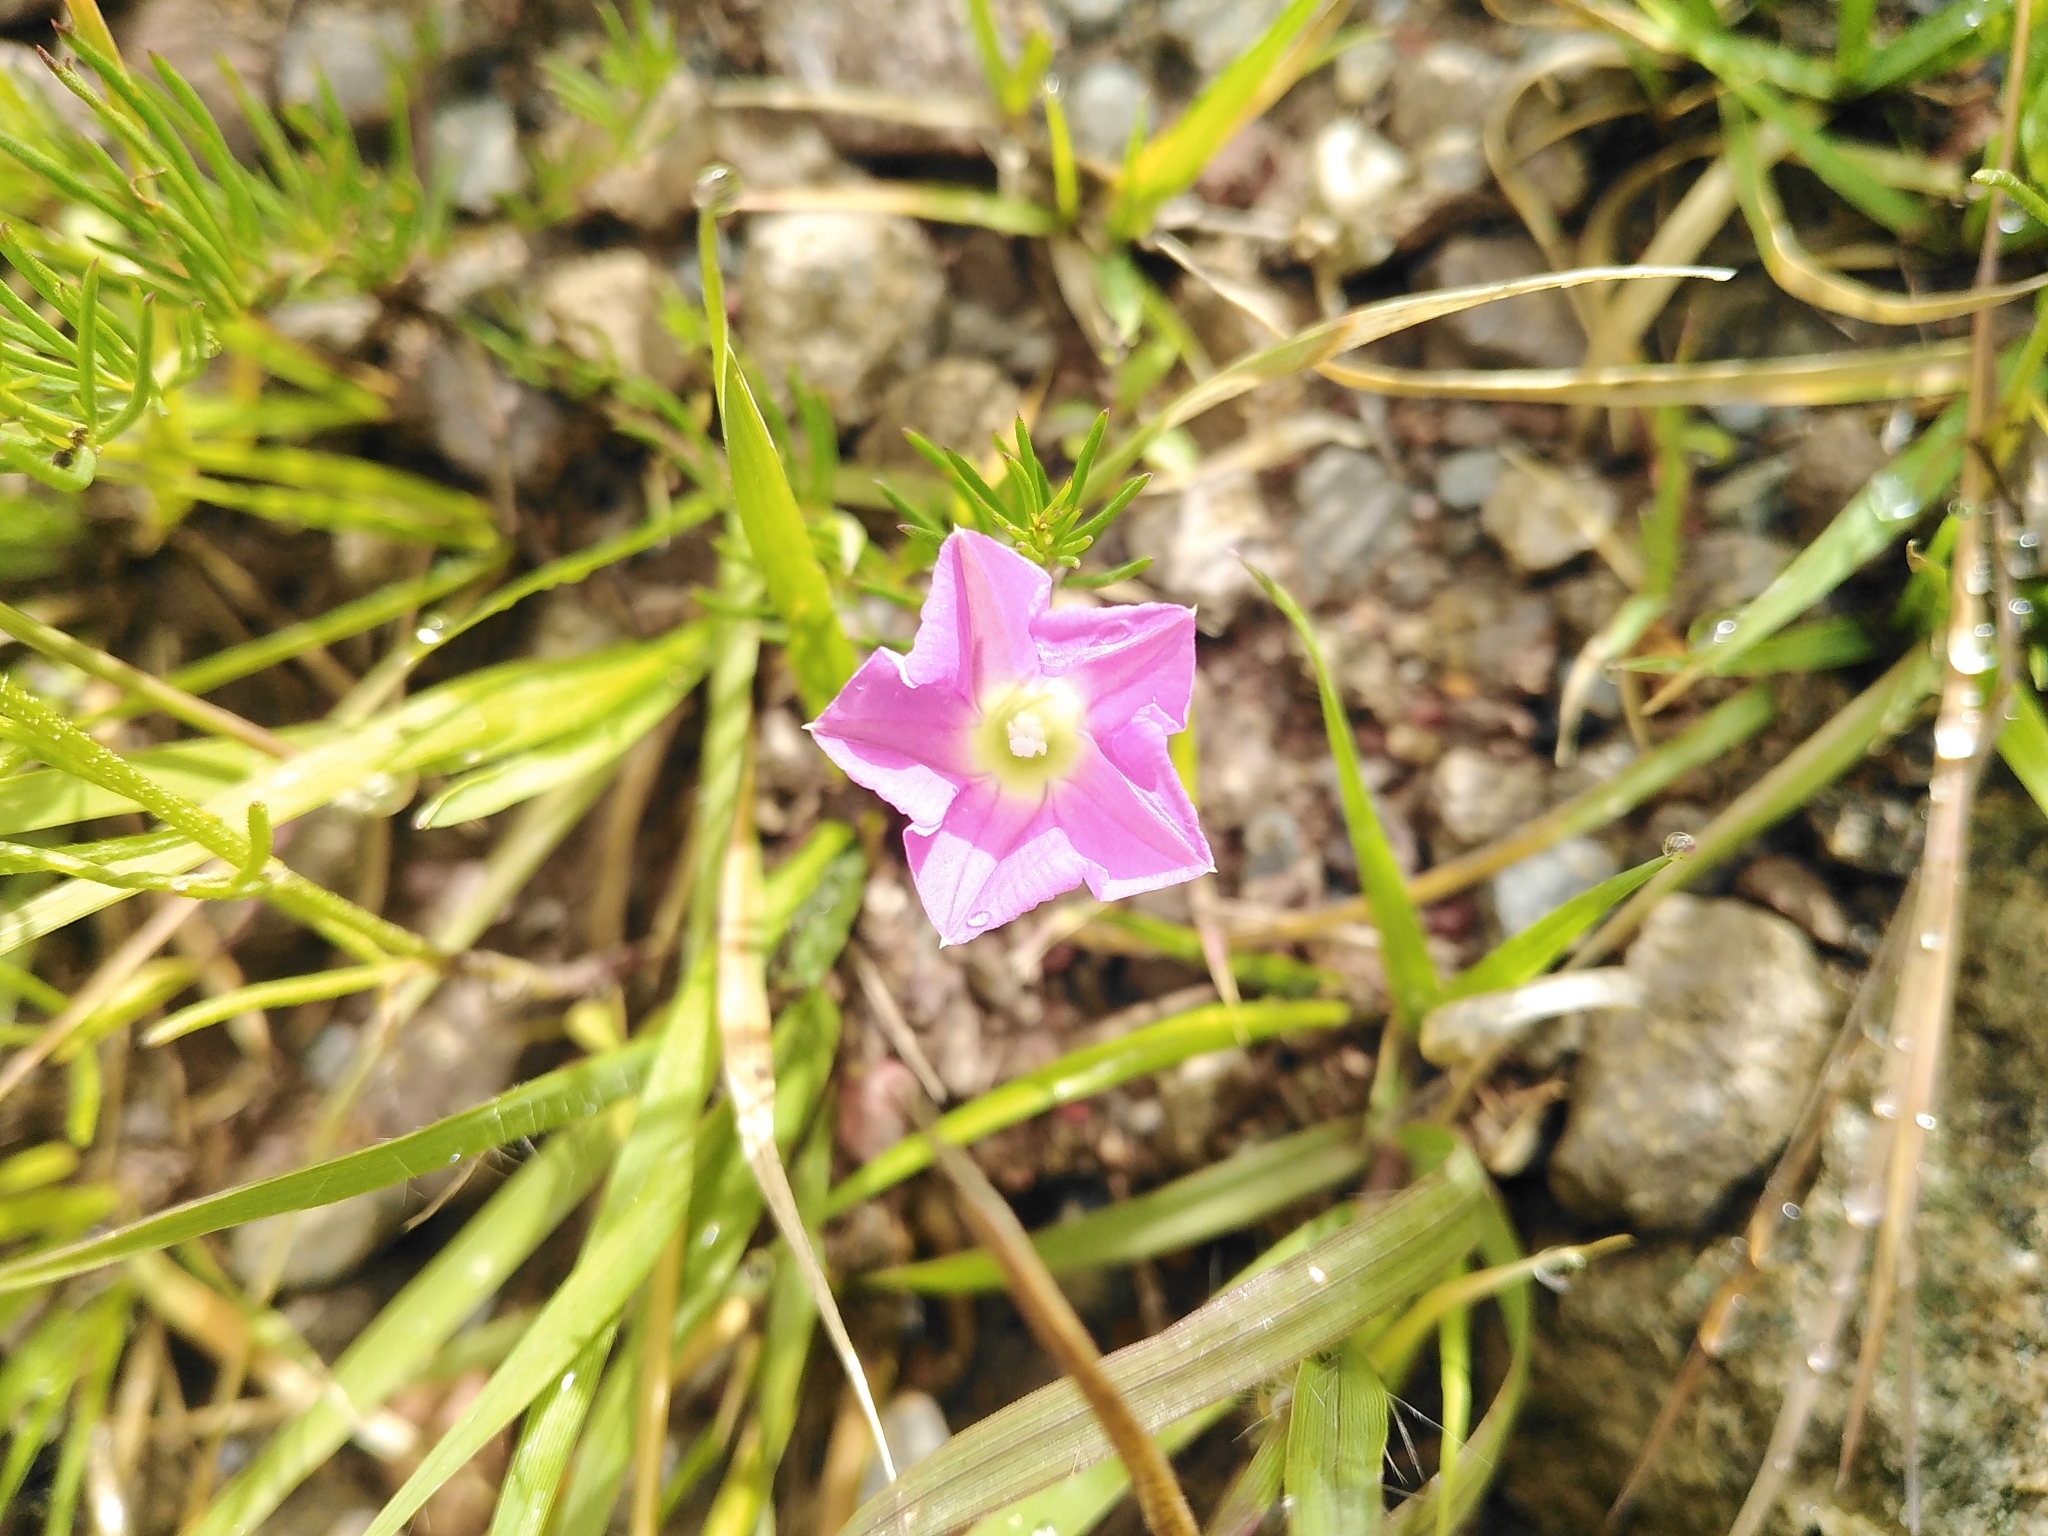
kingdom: Plantae
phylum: Tracheophyta
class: Magnoliopsida
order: Solanales
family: Convolvulaceae
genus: Ipomoea
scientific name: Ipomoea capillacea
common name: Purple morning-glory
